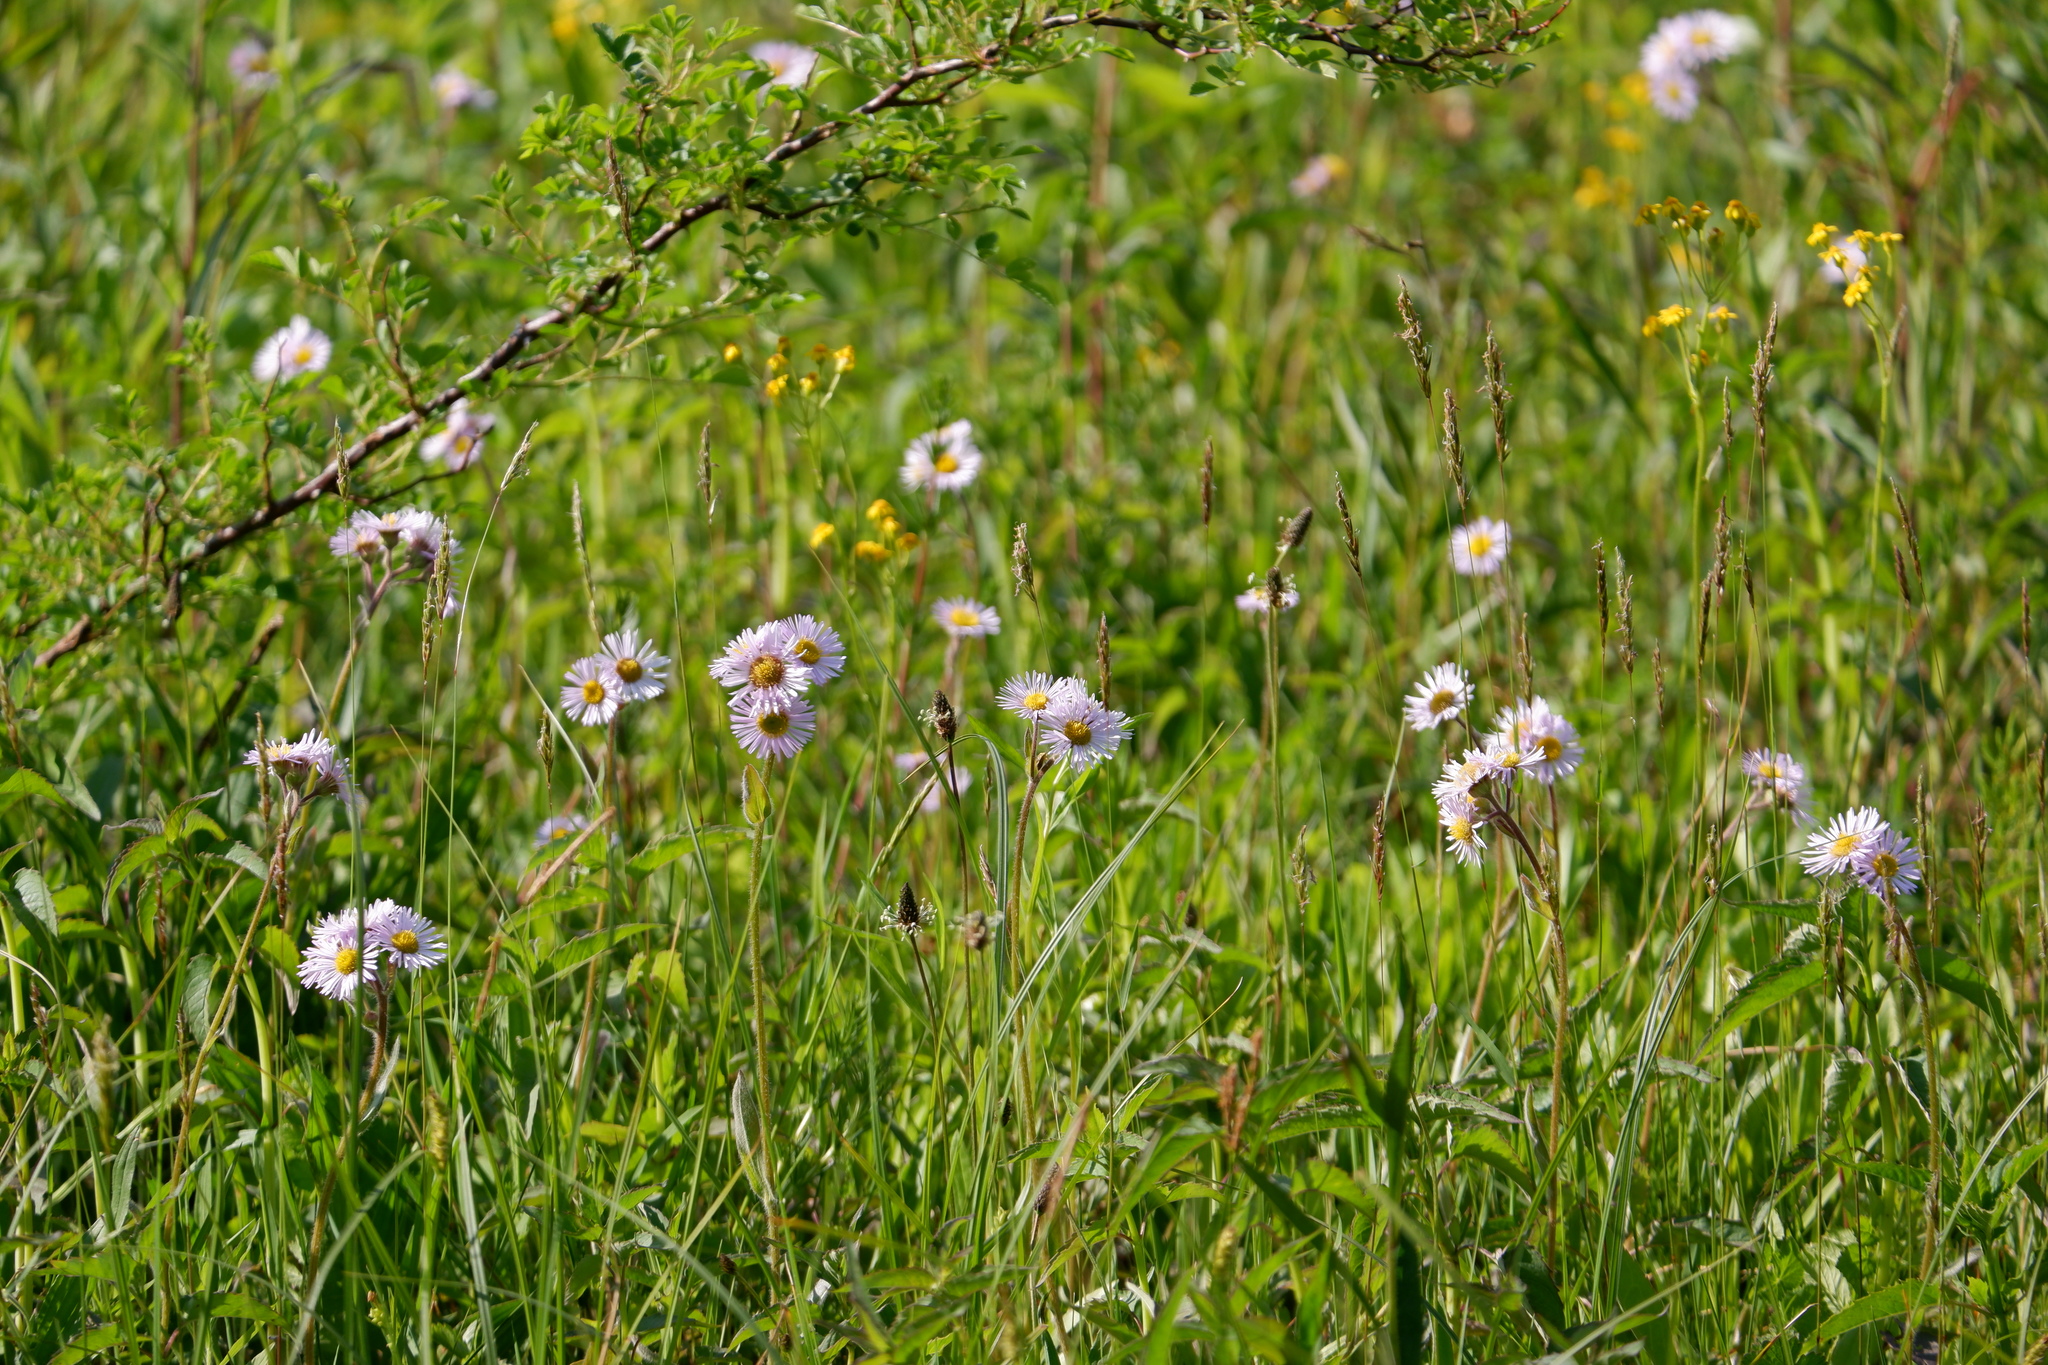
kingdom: Plantae
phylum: Tracheophyta
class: Magnoliopsida
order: Asterales
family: Asteraceae
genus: Erigeron
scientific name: Erigeron pulchellus
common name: Hairy fleabane
